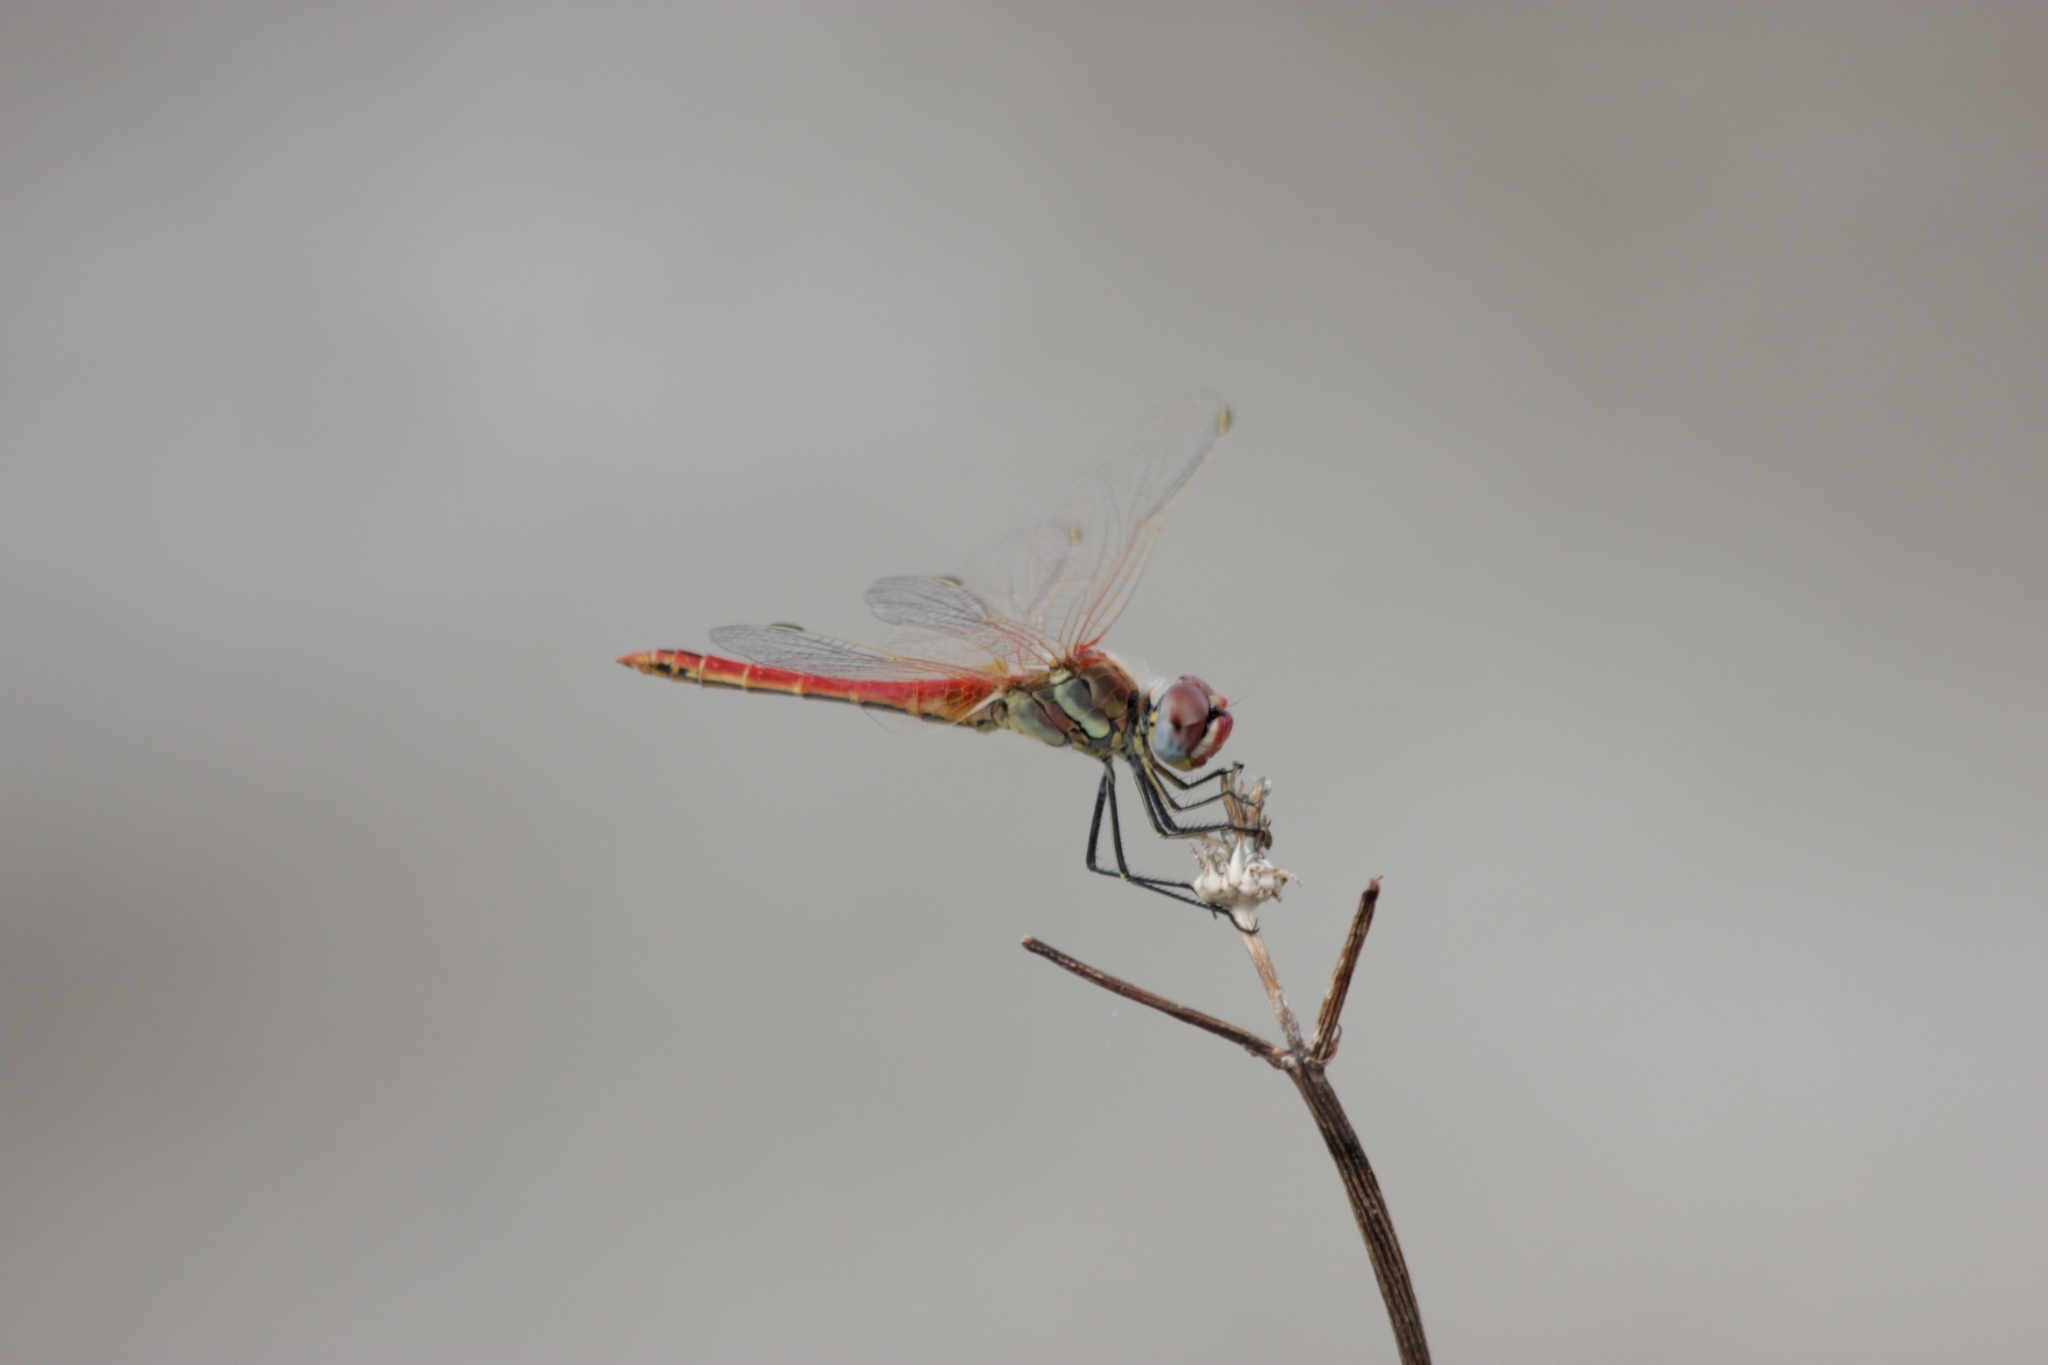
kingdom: Animalia
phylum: Arthropoda
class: Insecta
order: Odonata
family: Libellulidae
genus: Sympetrum
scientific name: Sympetrum fonscolombii
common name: Red-veined darter
